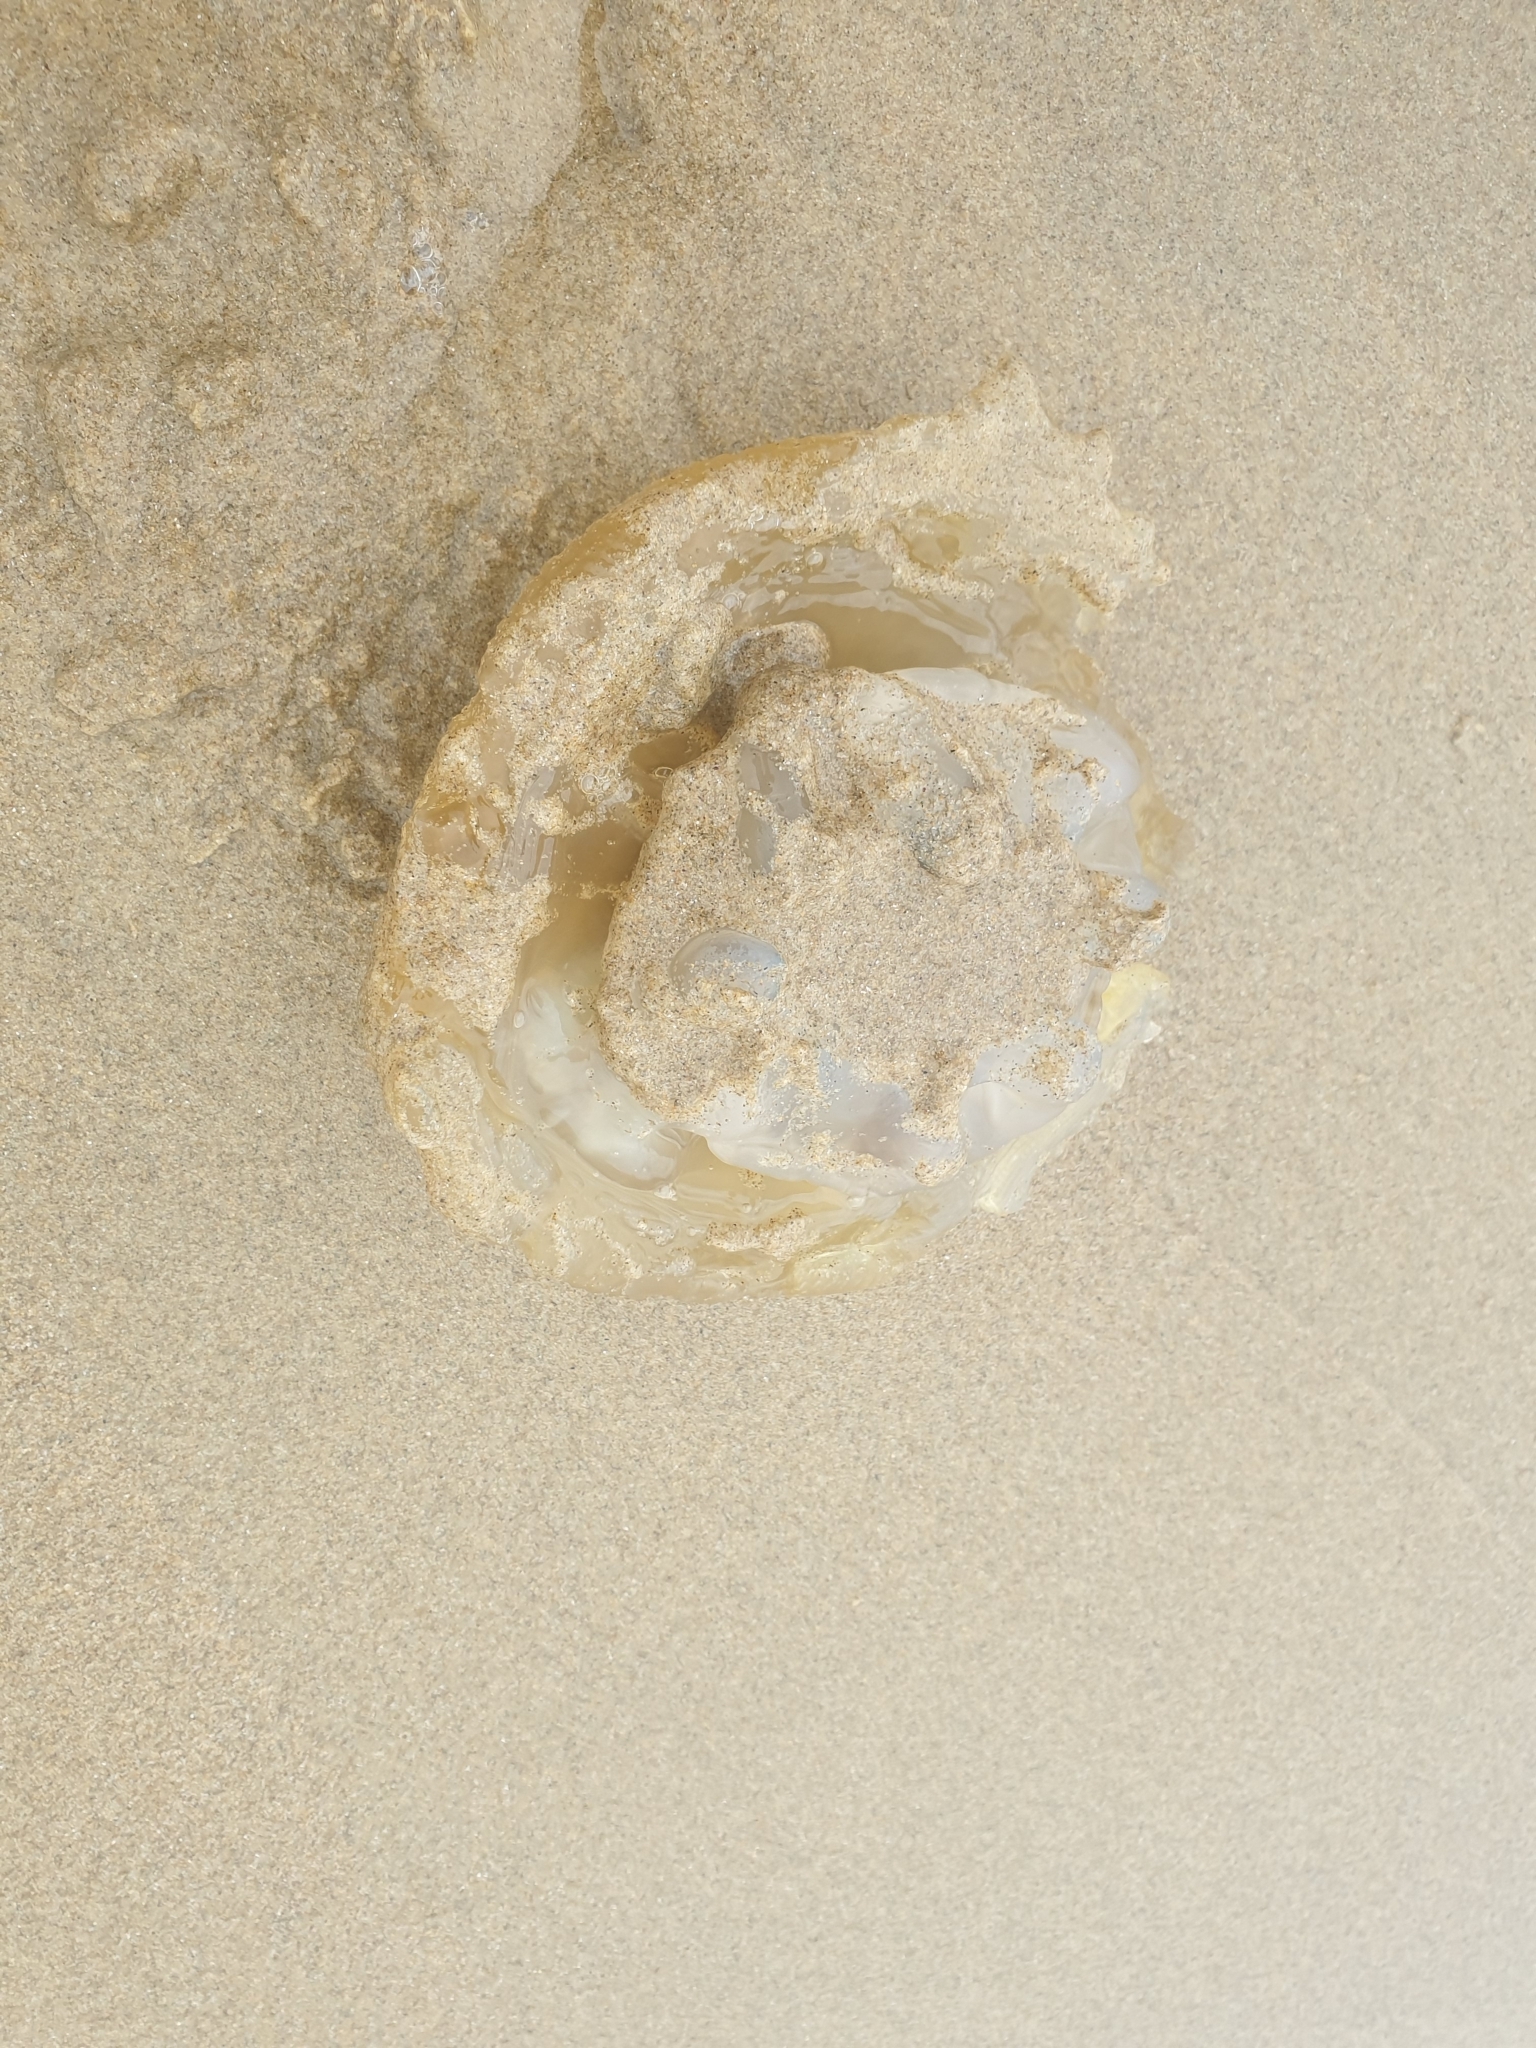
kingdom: Animalia
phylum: Cnidaria
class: Scyphozoa
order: Rhizostomeae
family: Catostylidae
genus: Catostylus
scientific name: Catostylus mosaicus
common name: Blue blubber
